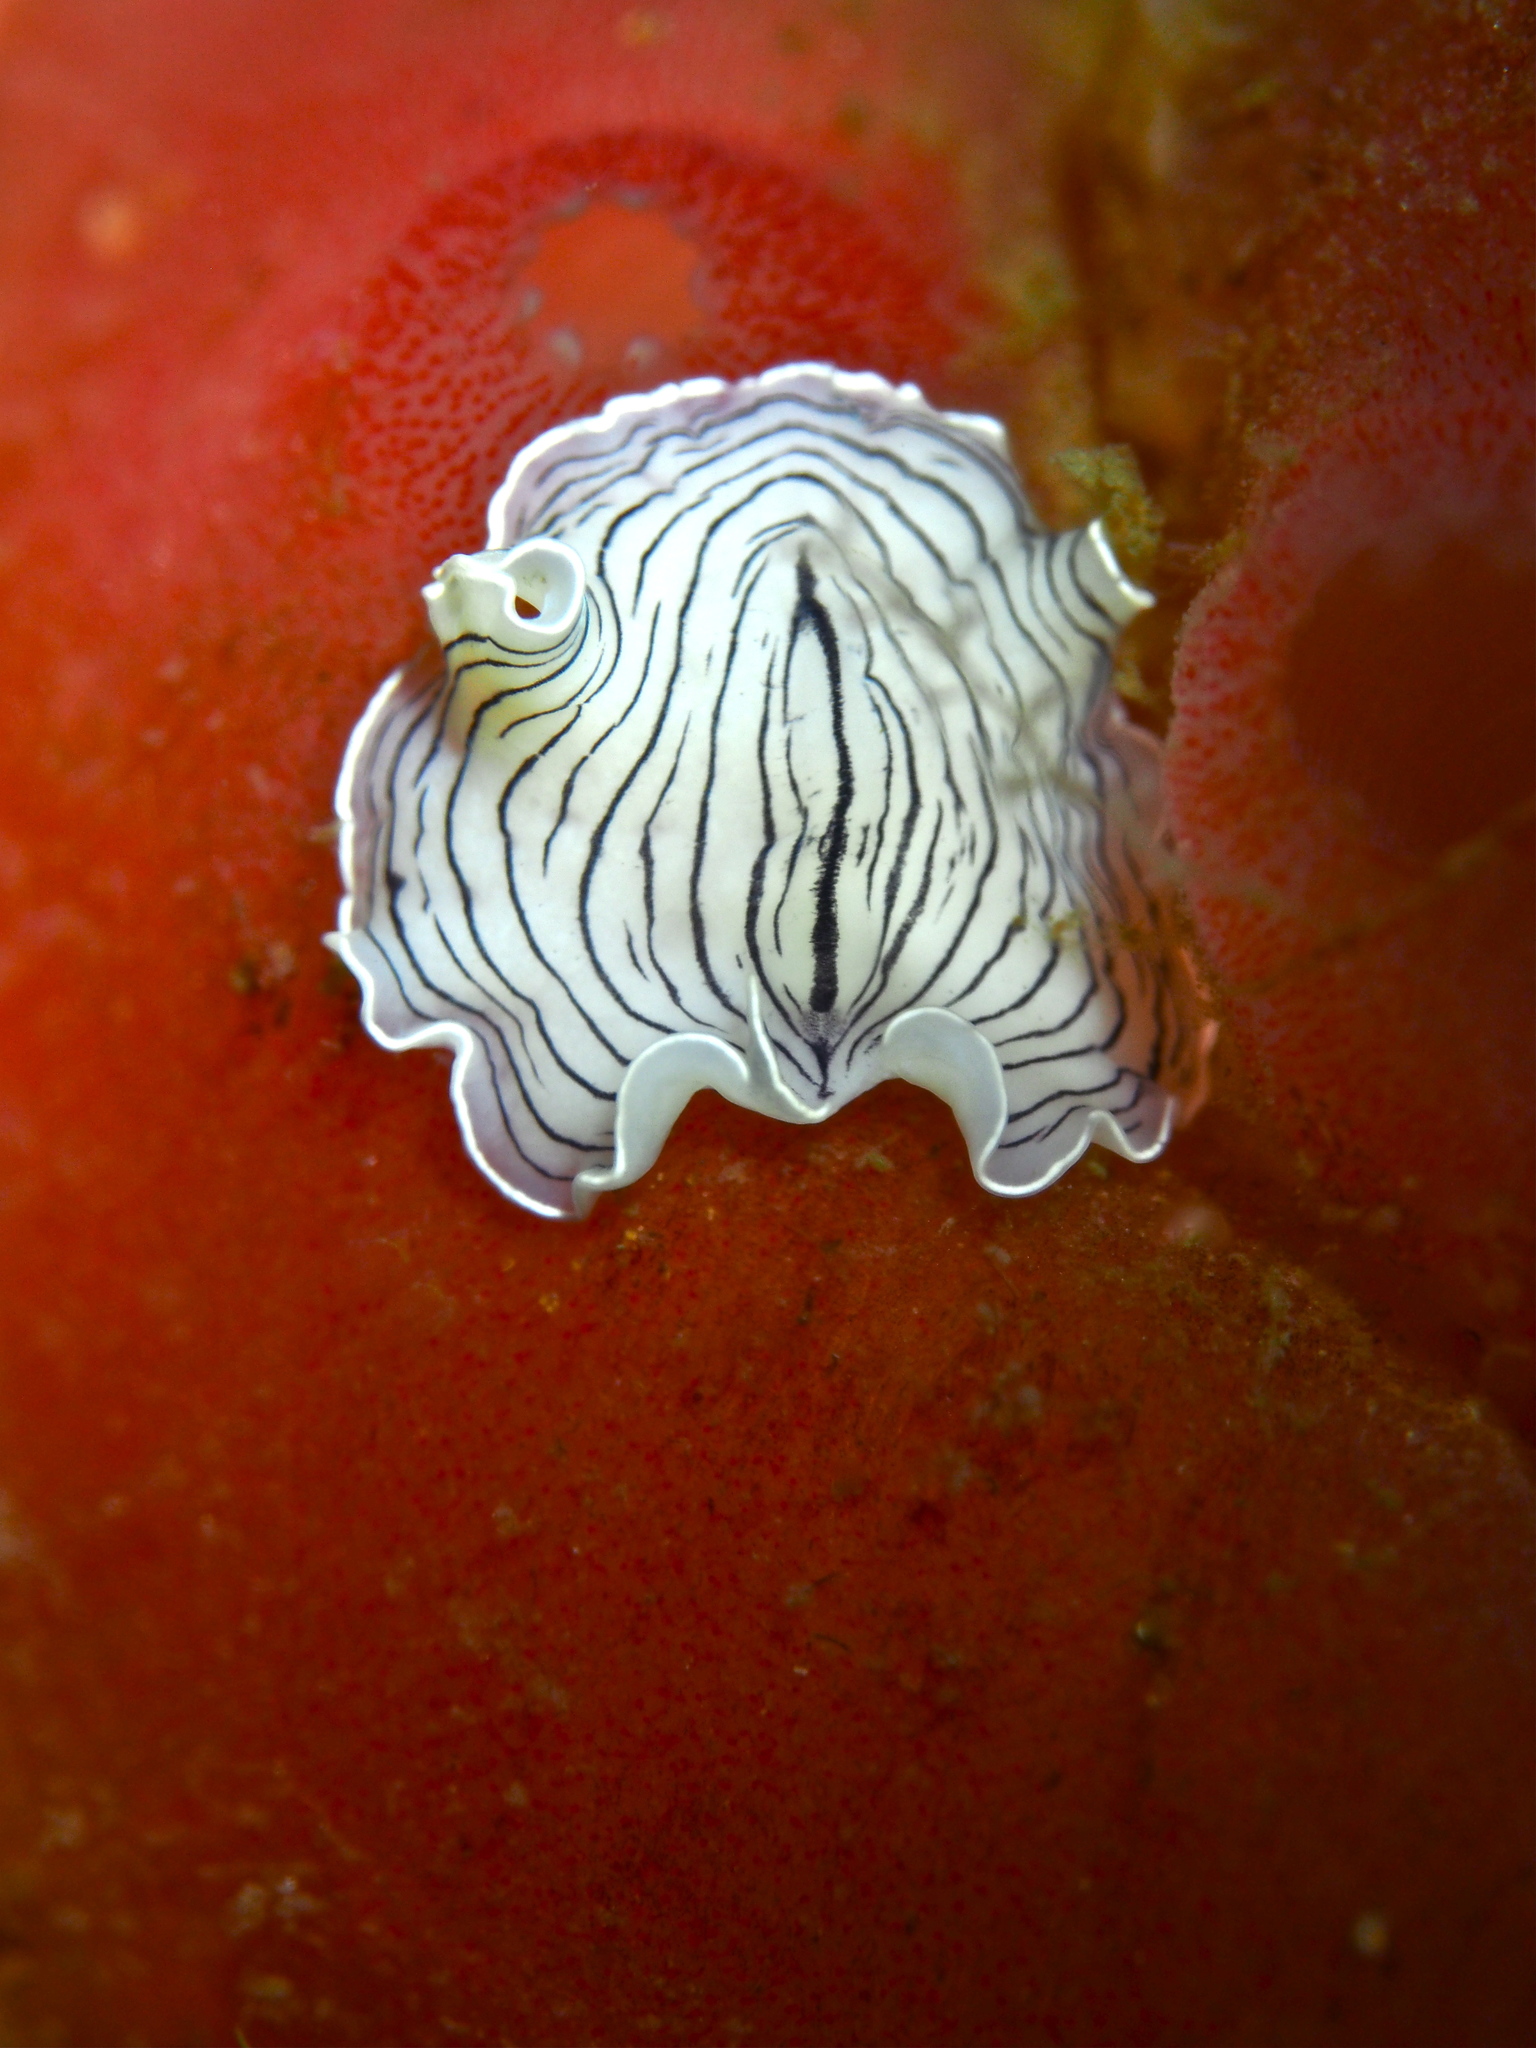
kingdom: Animalia
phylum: Platyhelminthes
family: Euryleptidae
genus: Prostheceraeus
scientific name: Prostheceraeus vittatus
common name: Candy striped flatworm
